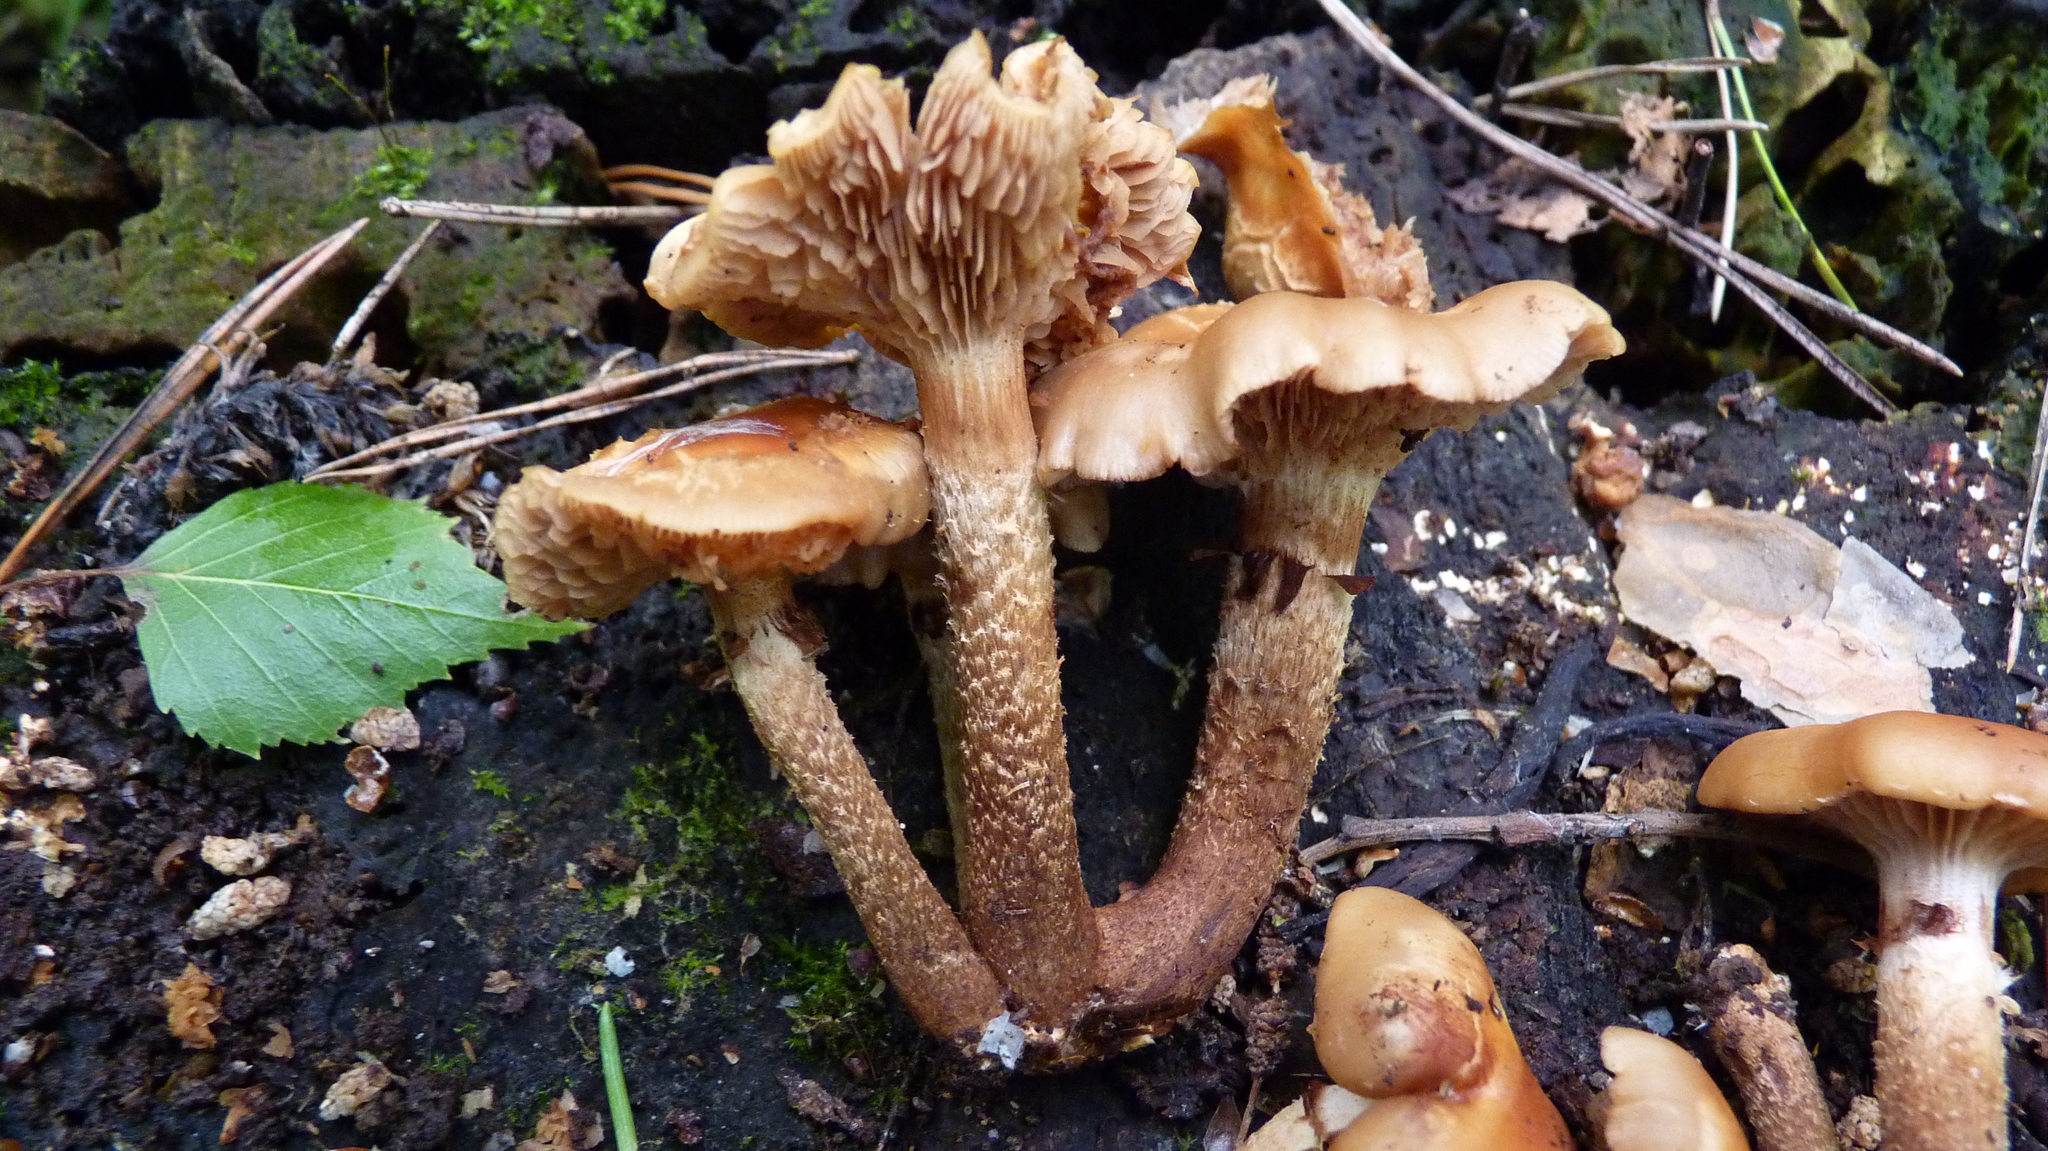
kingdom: Fungi
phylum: Basidiomycota
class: Agaricomycetes
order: Agaricales
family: Strophariaceae
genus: Kuehneromyces
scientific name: Kuehneromyces mutabilis
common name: Sheathed woodtuft
